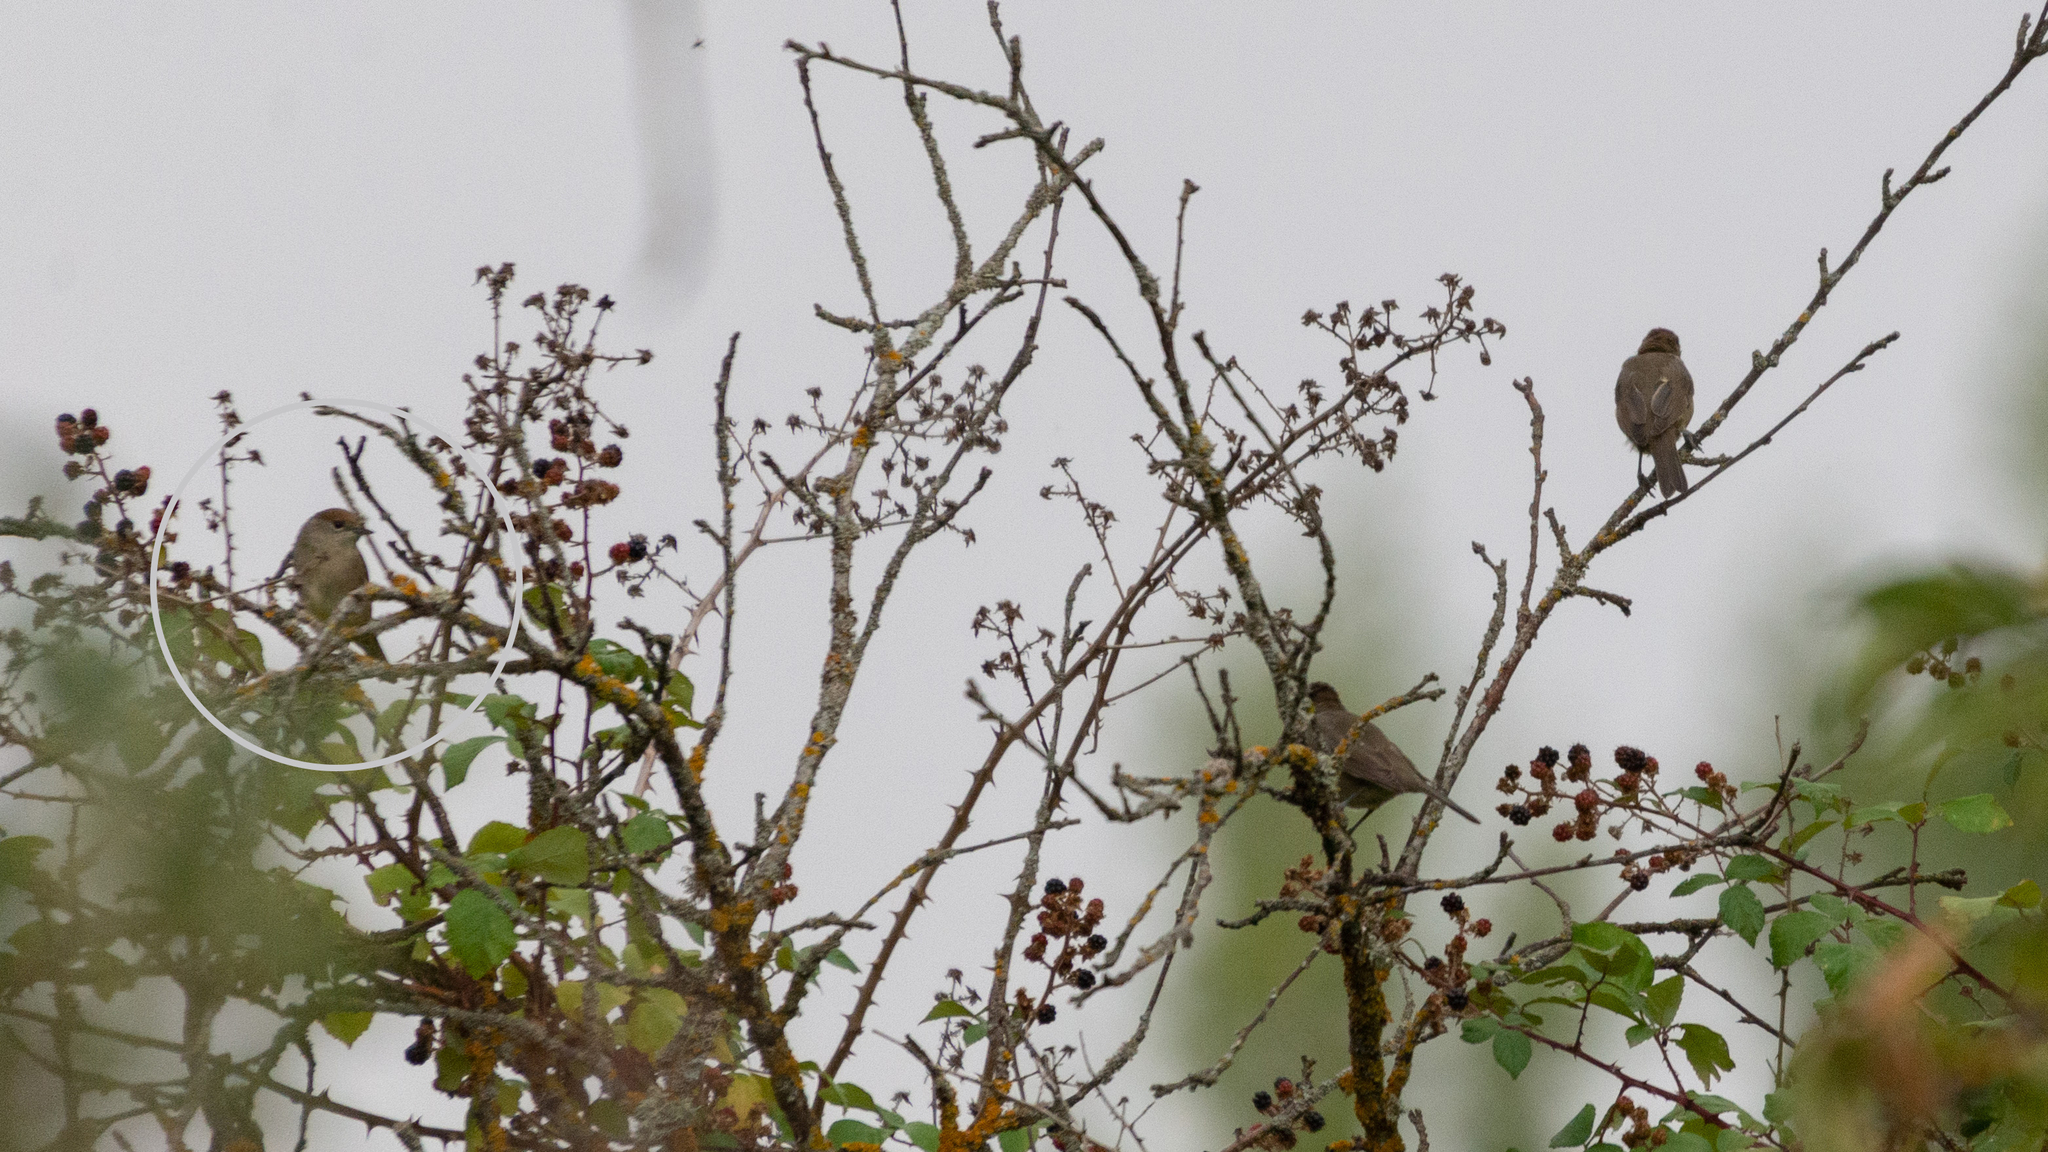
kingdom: Animalia
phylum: Chordata
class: Aves
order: Passeriformes
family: Sylviidae
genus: Sylvia
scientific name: Sylvia atricapilla
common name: Eurasian blackcap
